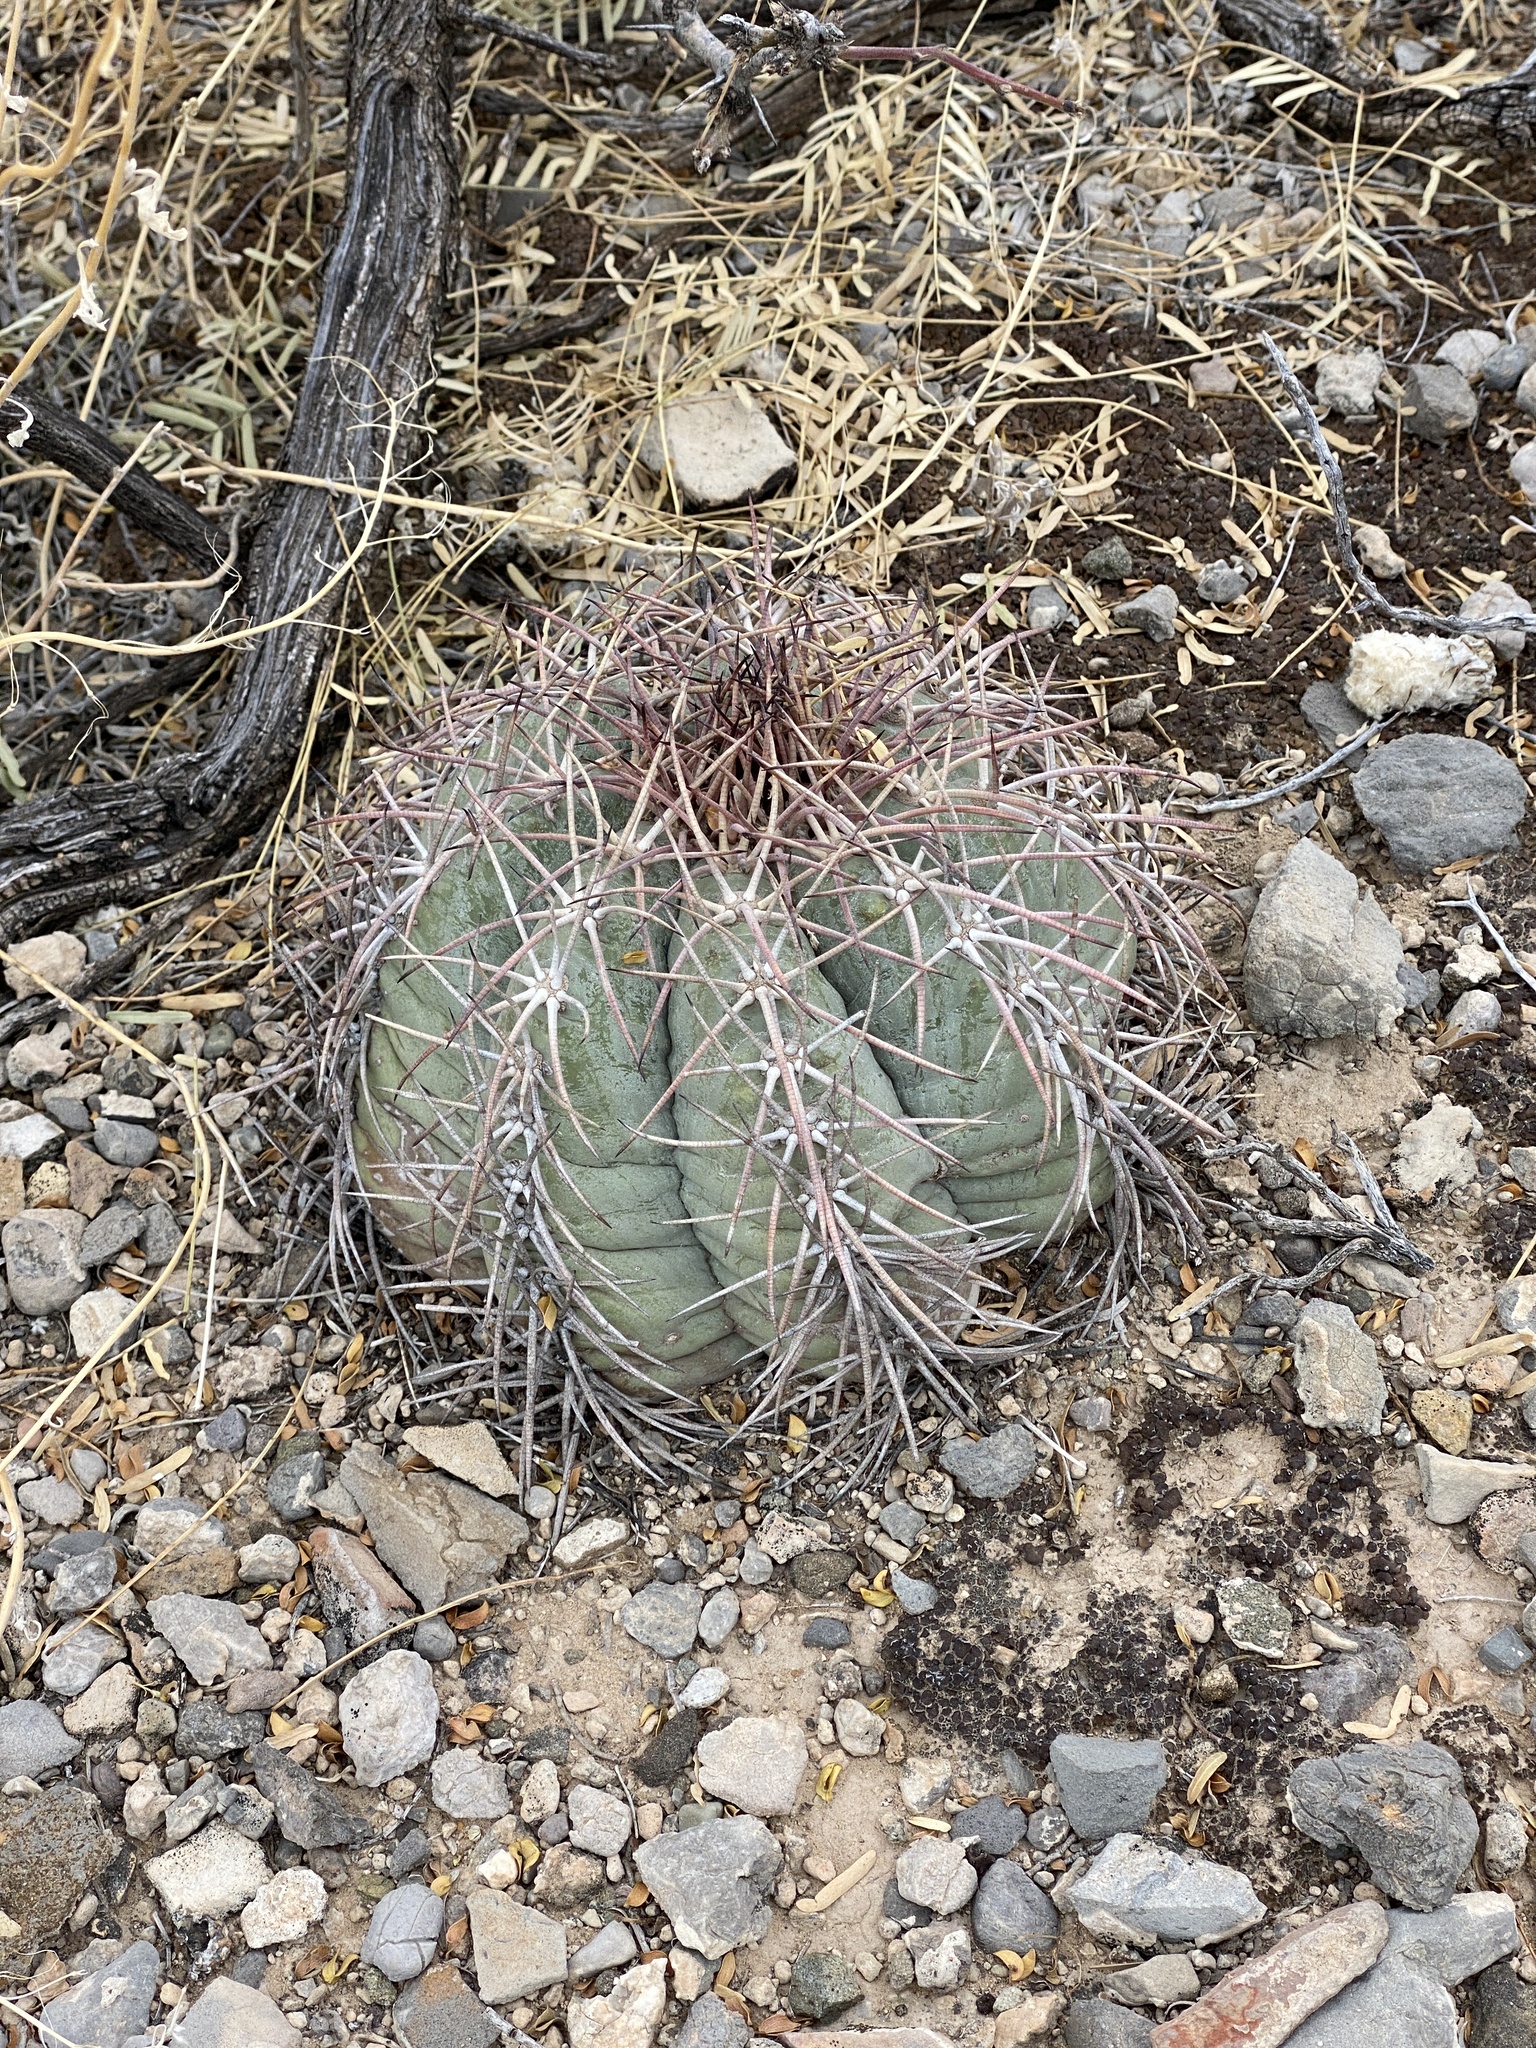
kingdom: Plantae
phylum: Tracheophyta
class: Magnoliopsida
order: Caryophyllales
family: Cactaceae
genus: Echinocactus
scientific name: Echinocactus horizonthalonius
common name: Devilshead
